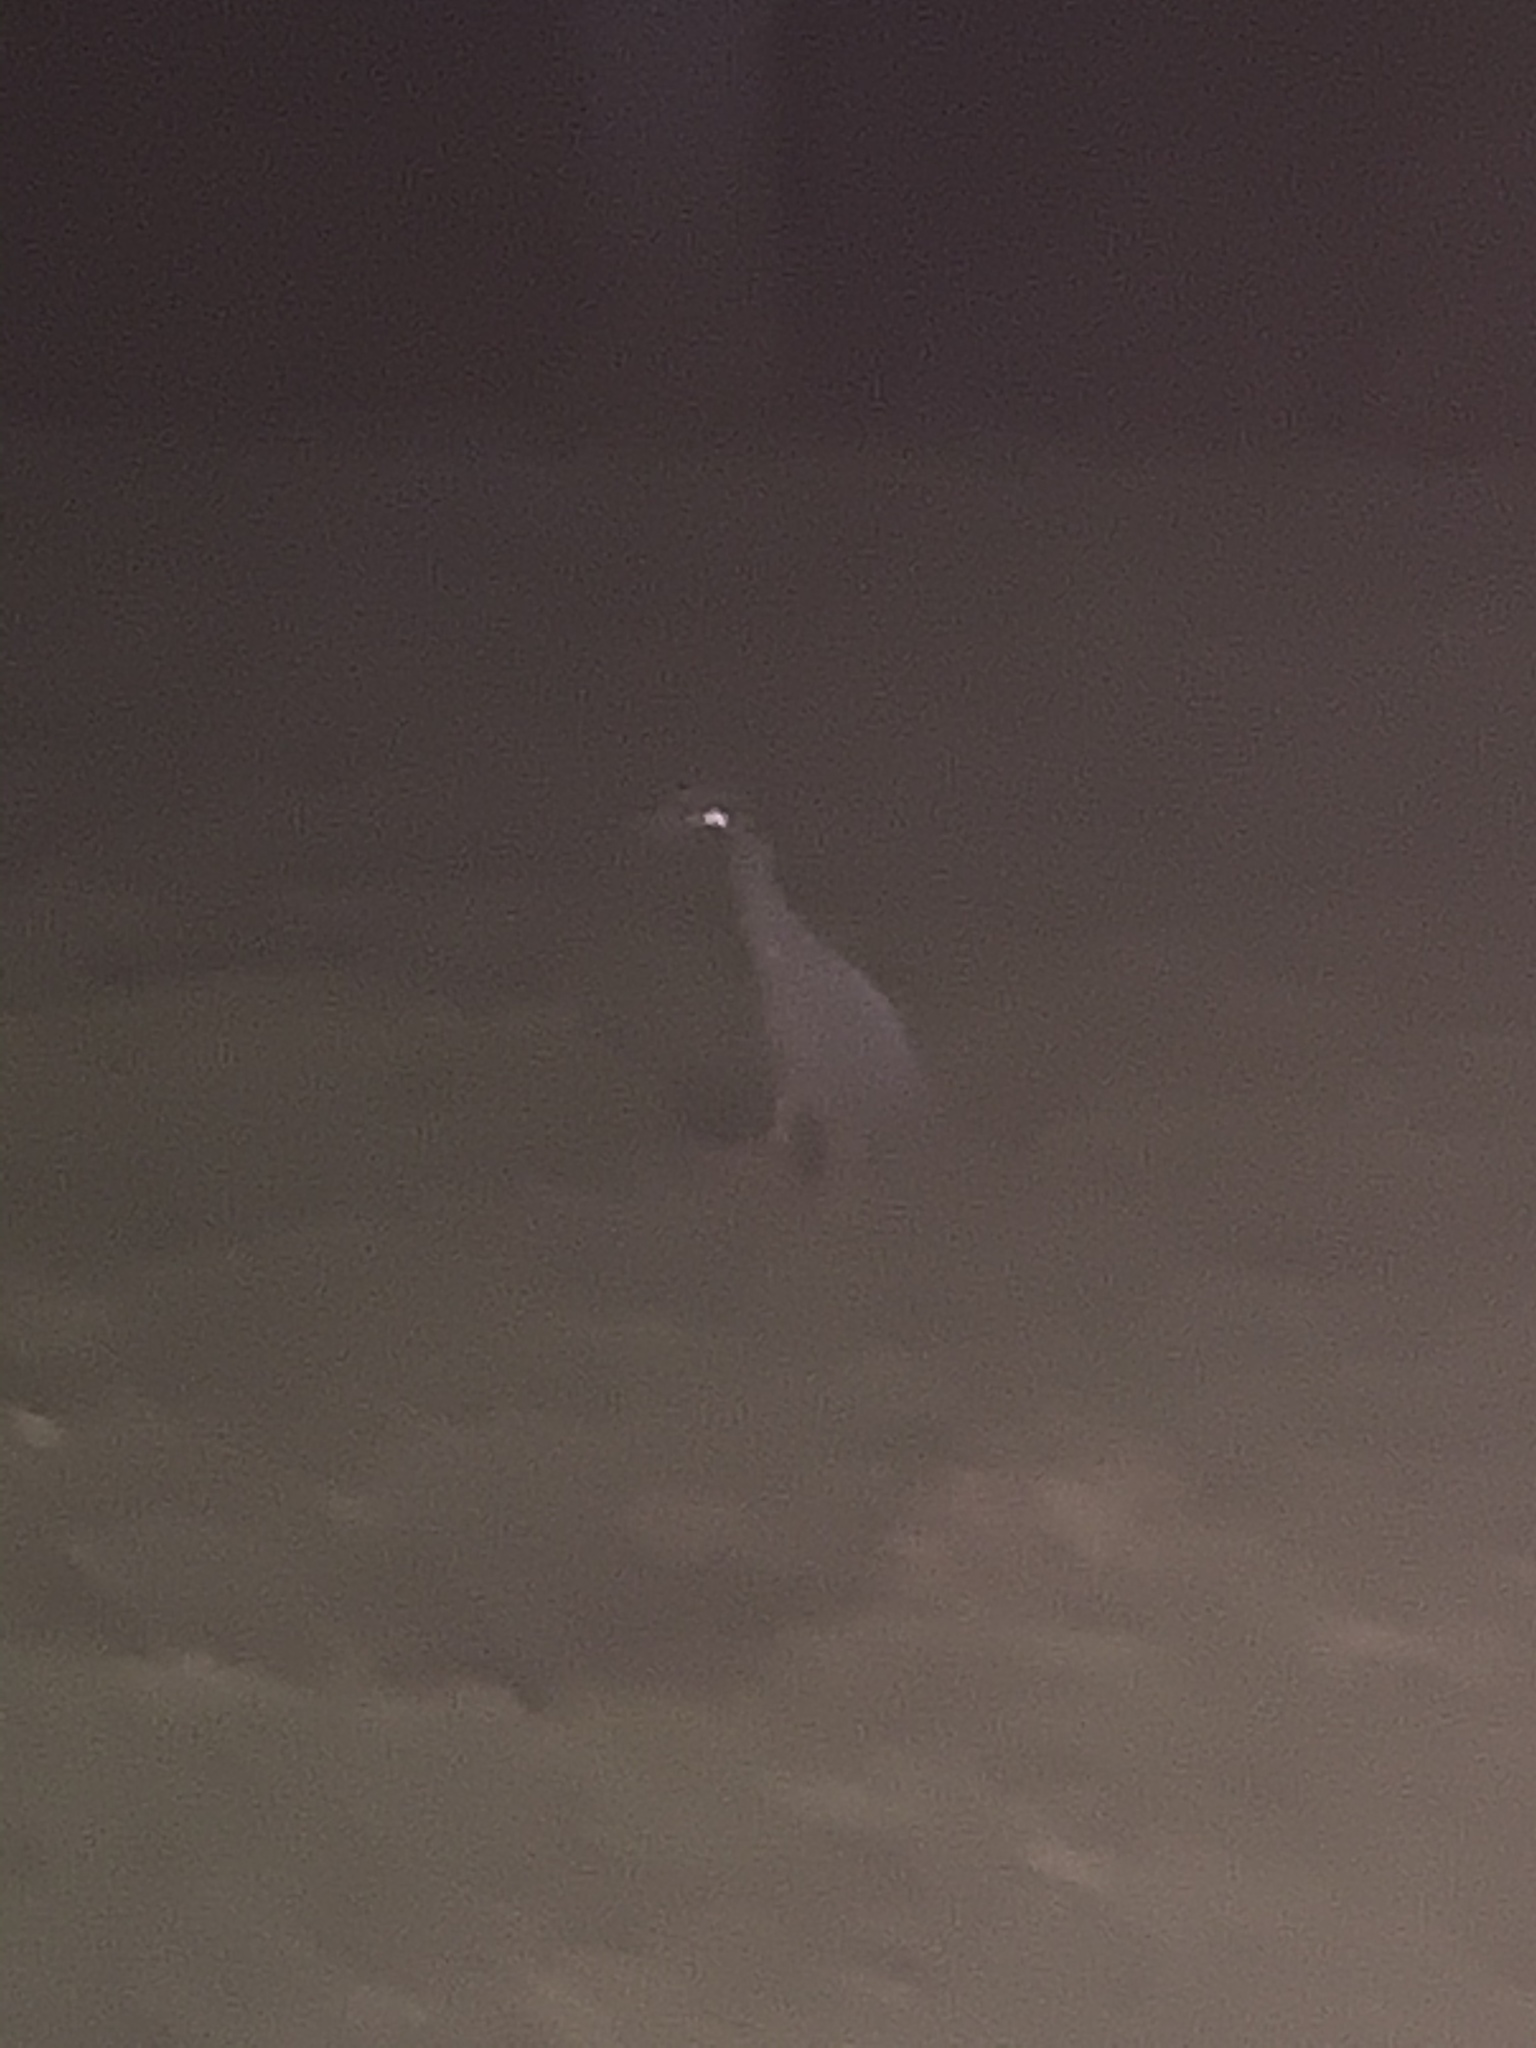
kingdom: Animalia
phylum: Chordata
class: Aves
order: Pelecaniformes
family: Ardeidae
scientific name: Ardeidae
